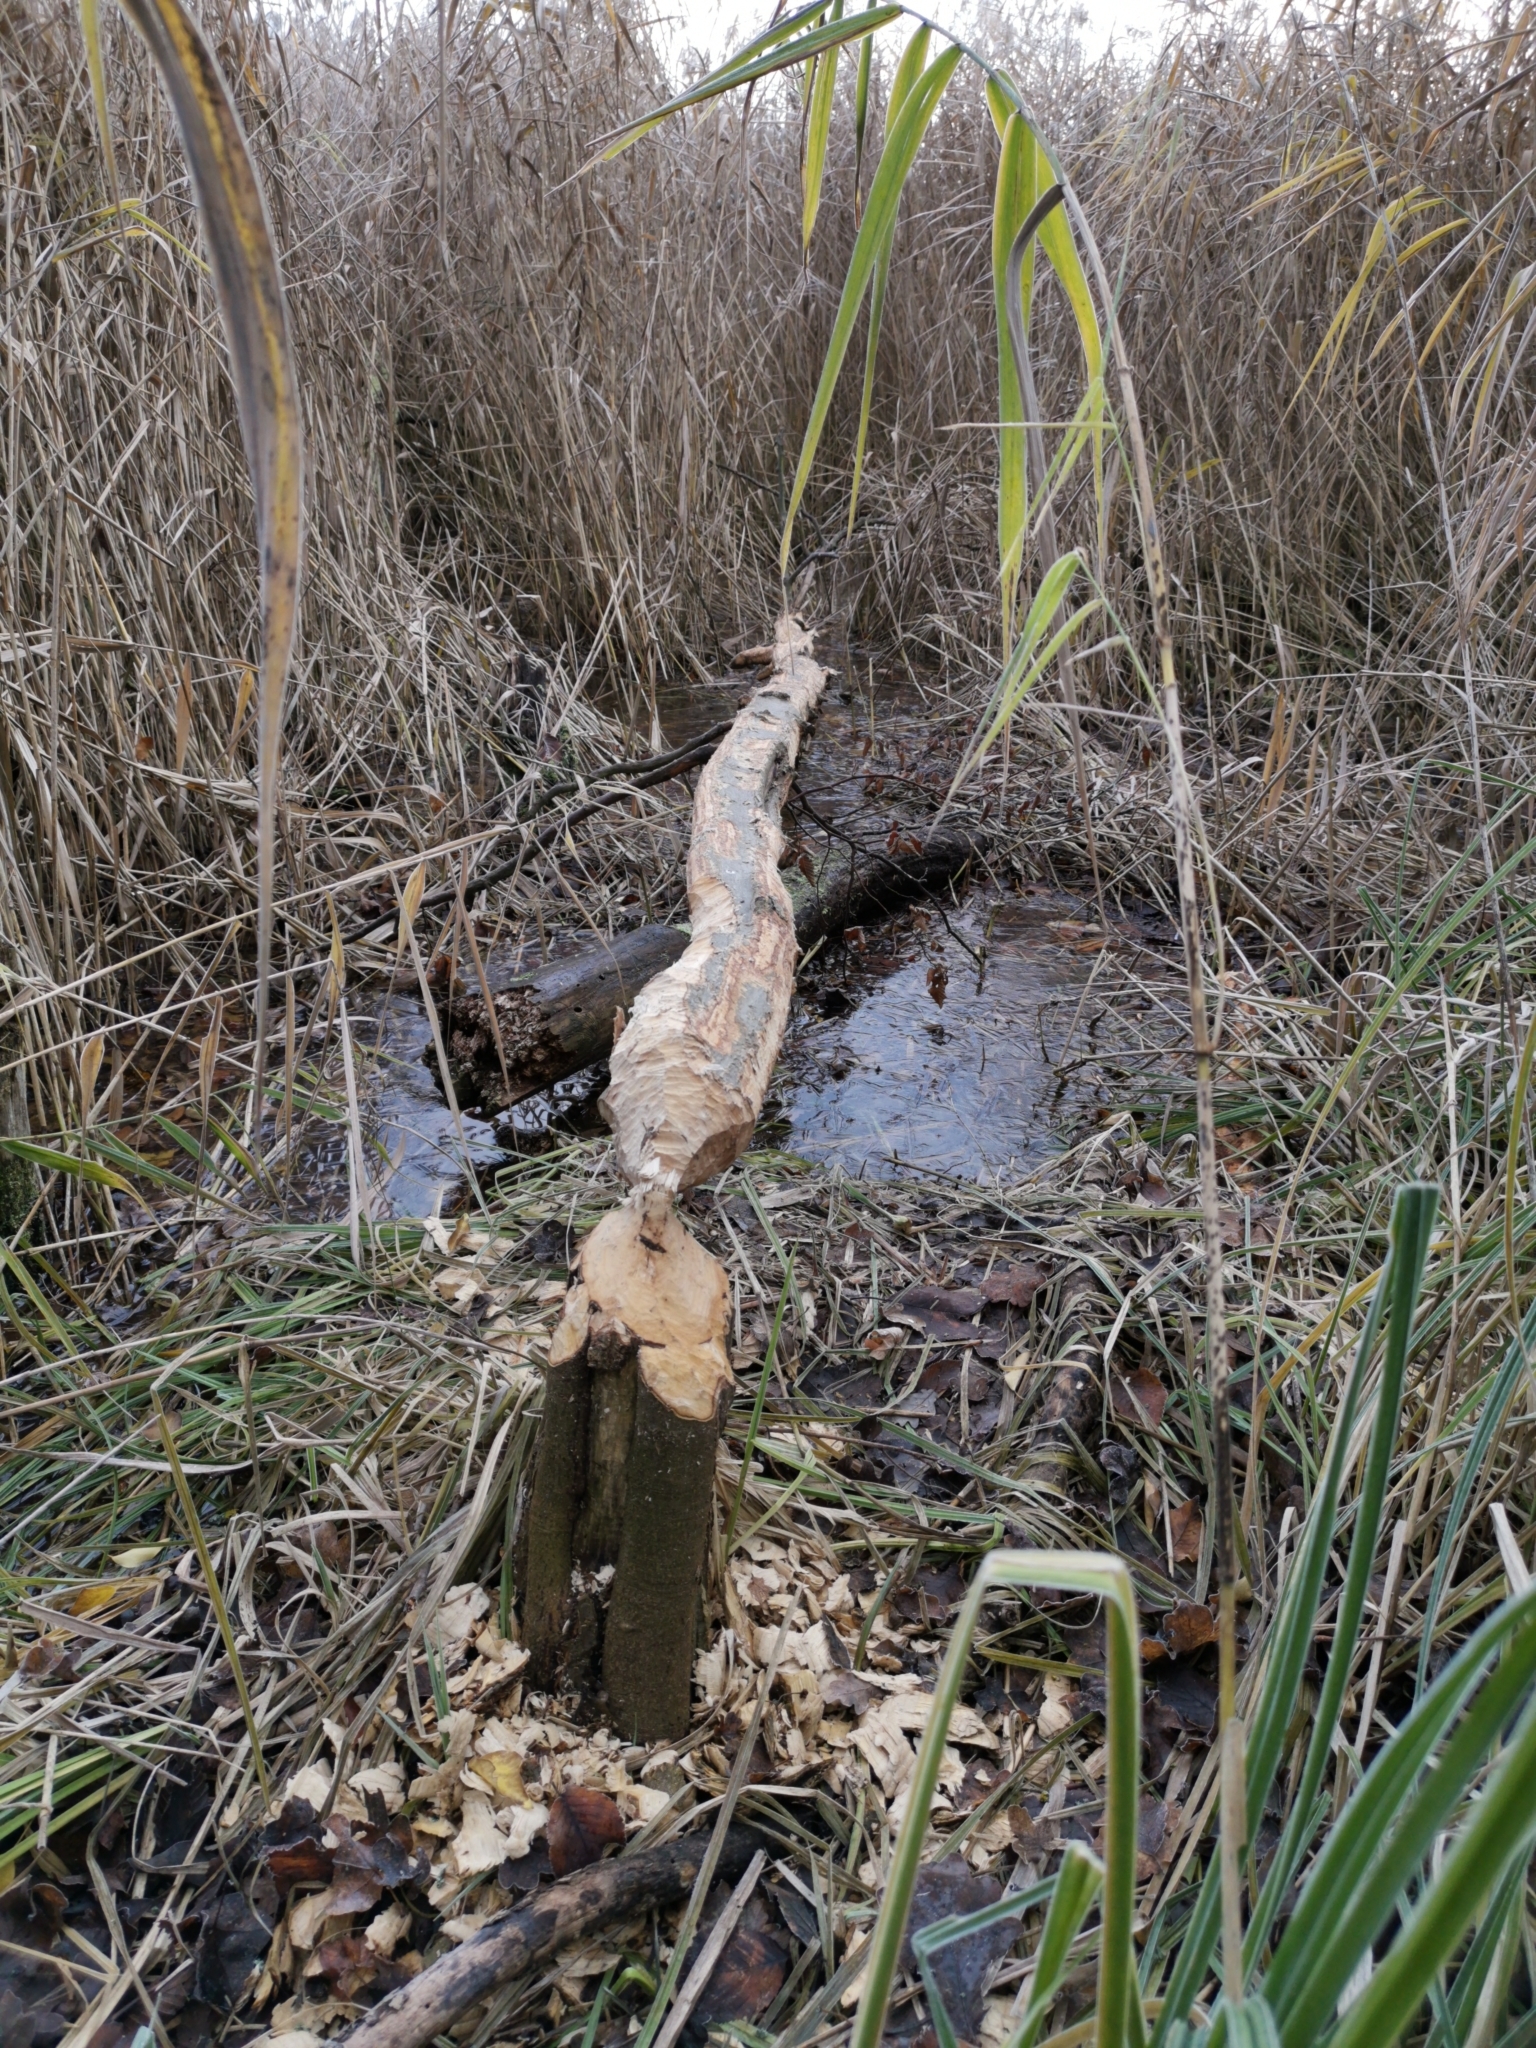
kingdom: Animalia
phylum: Chordata
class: Mammalia
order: Rodentia
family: Castoridae
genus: Castor
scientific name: Castor fiber
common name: Eurasian beaver
